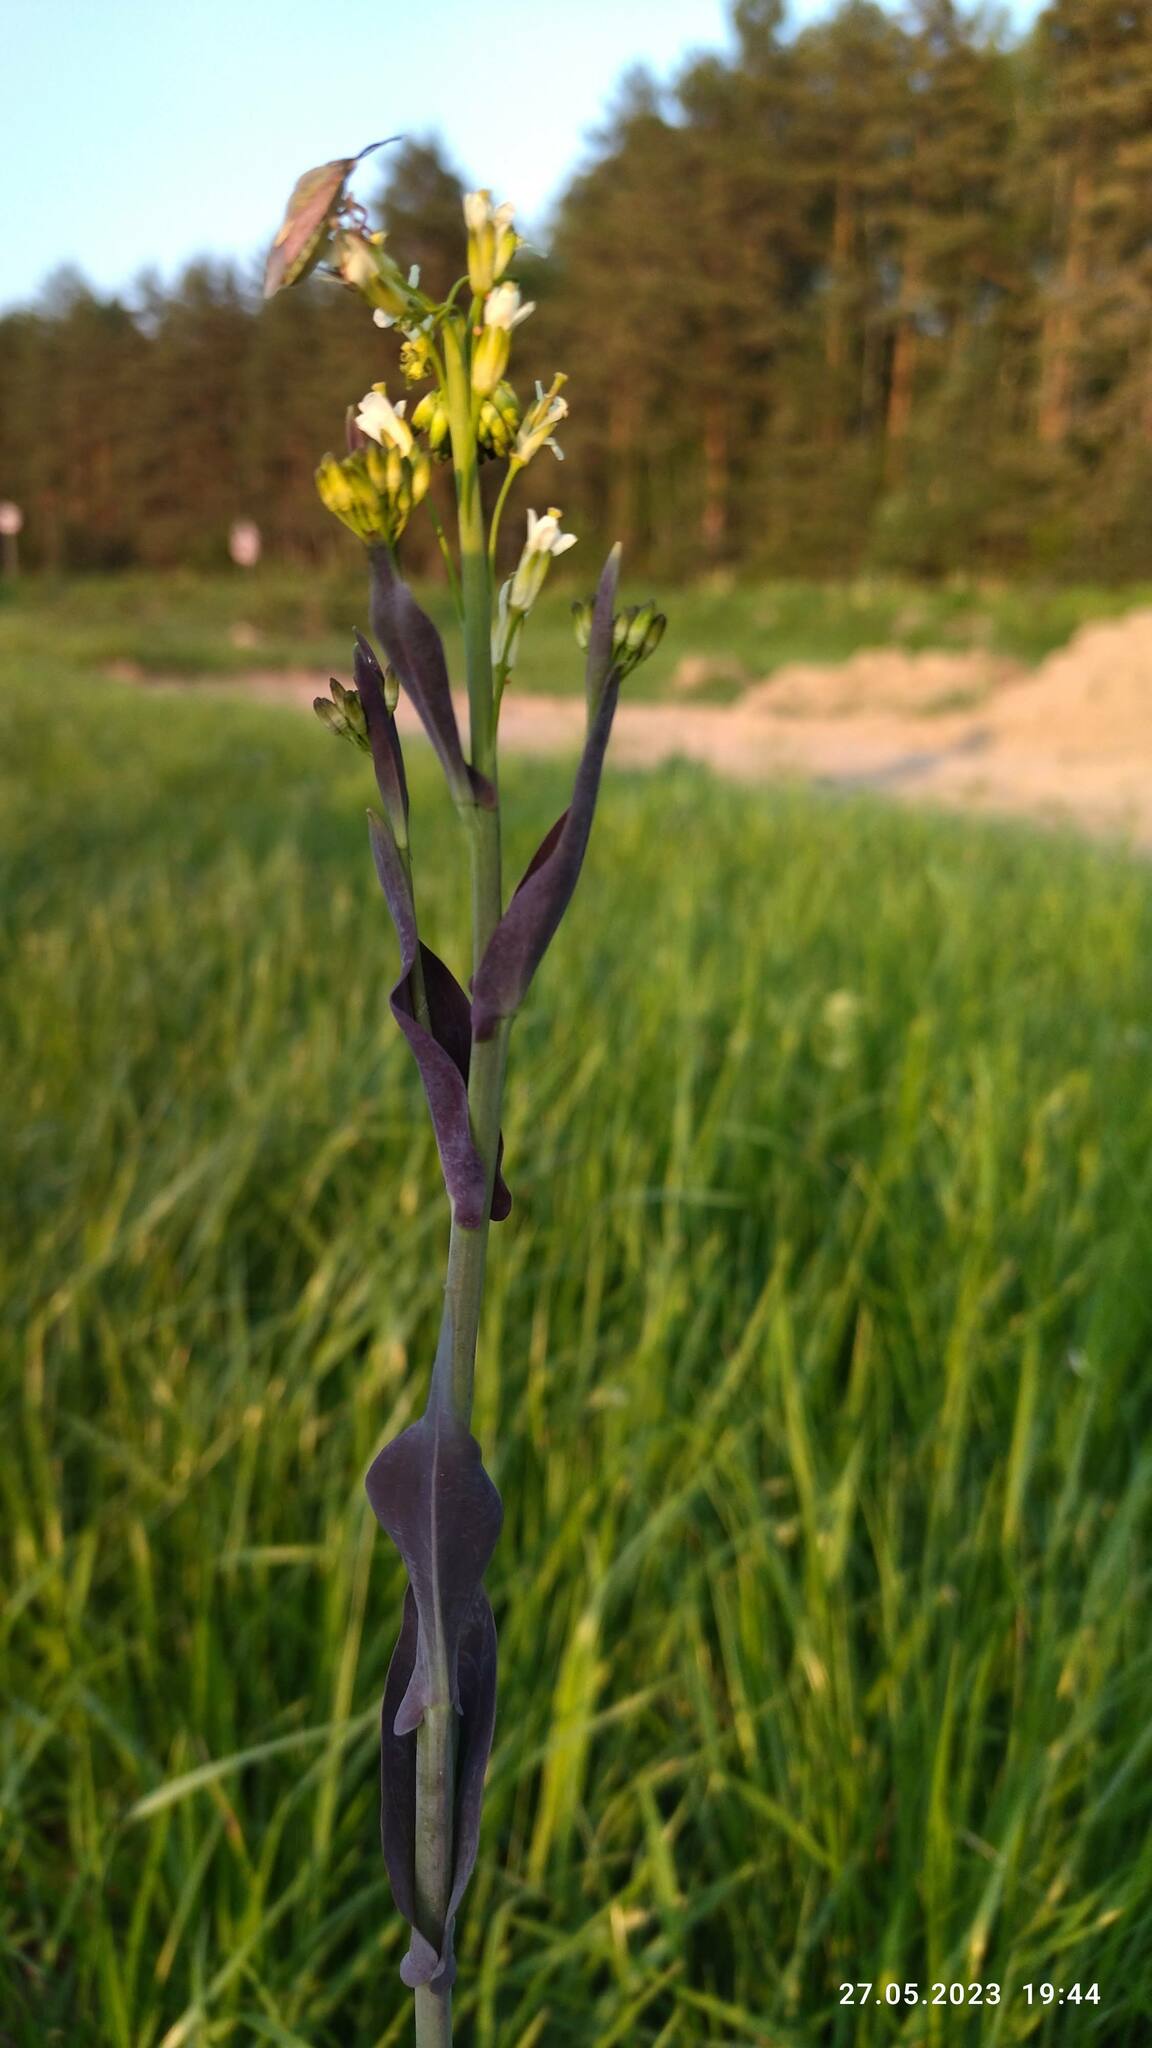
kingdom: Plantae
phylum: Tracheophyta
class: Magnoliopsida
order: Brassicales
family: Brassicaceae
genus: Turritis
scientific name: Turritis glabra
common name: Tower rockcress
